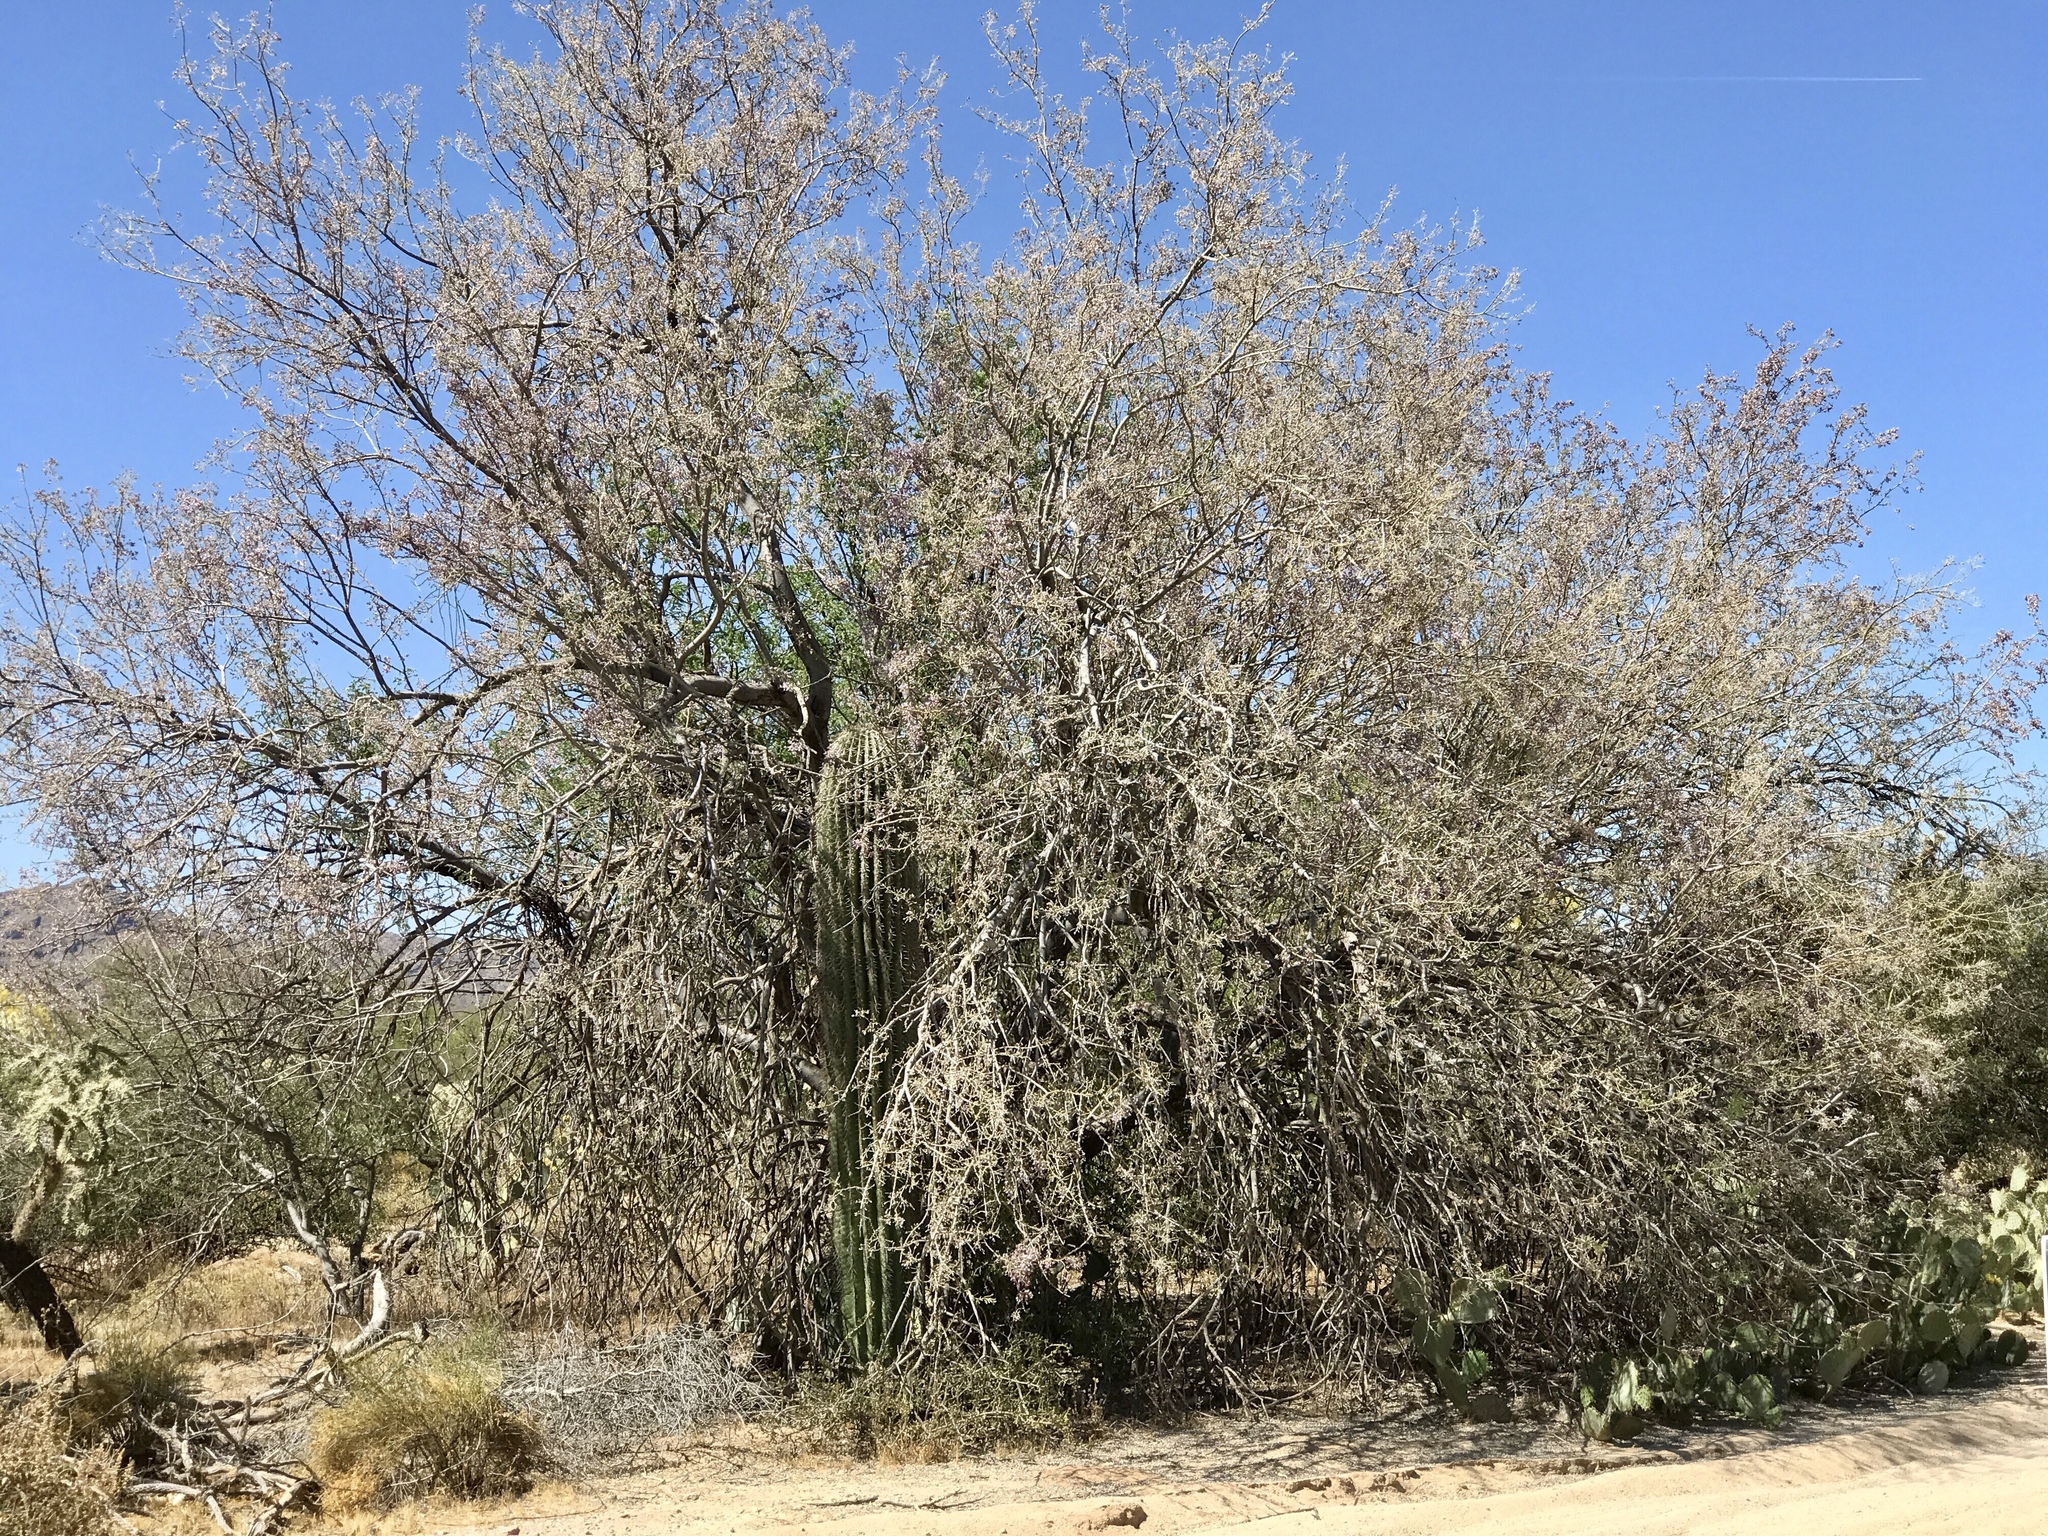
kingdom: Plantae
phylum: Tracheophyta
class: Magnoliopsida
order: Fabales
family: Fabaceae
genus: Olneya
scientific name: Olneya tesota
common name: Desert ironwood
